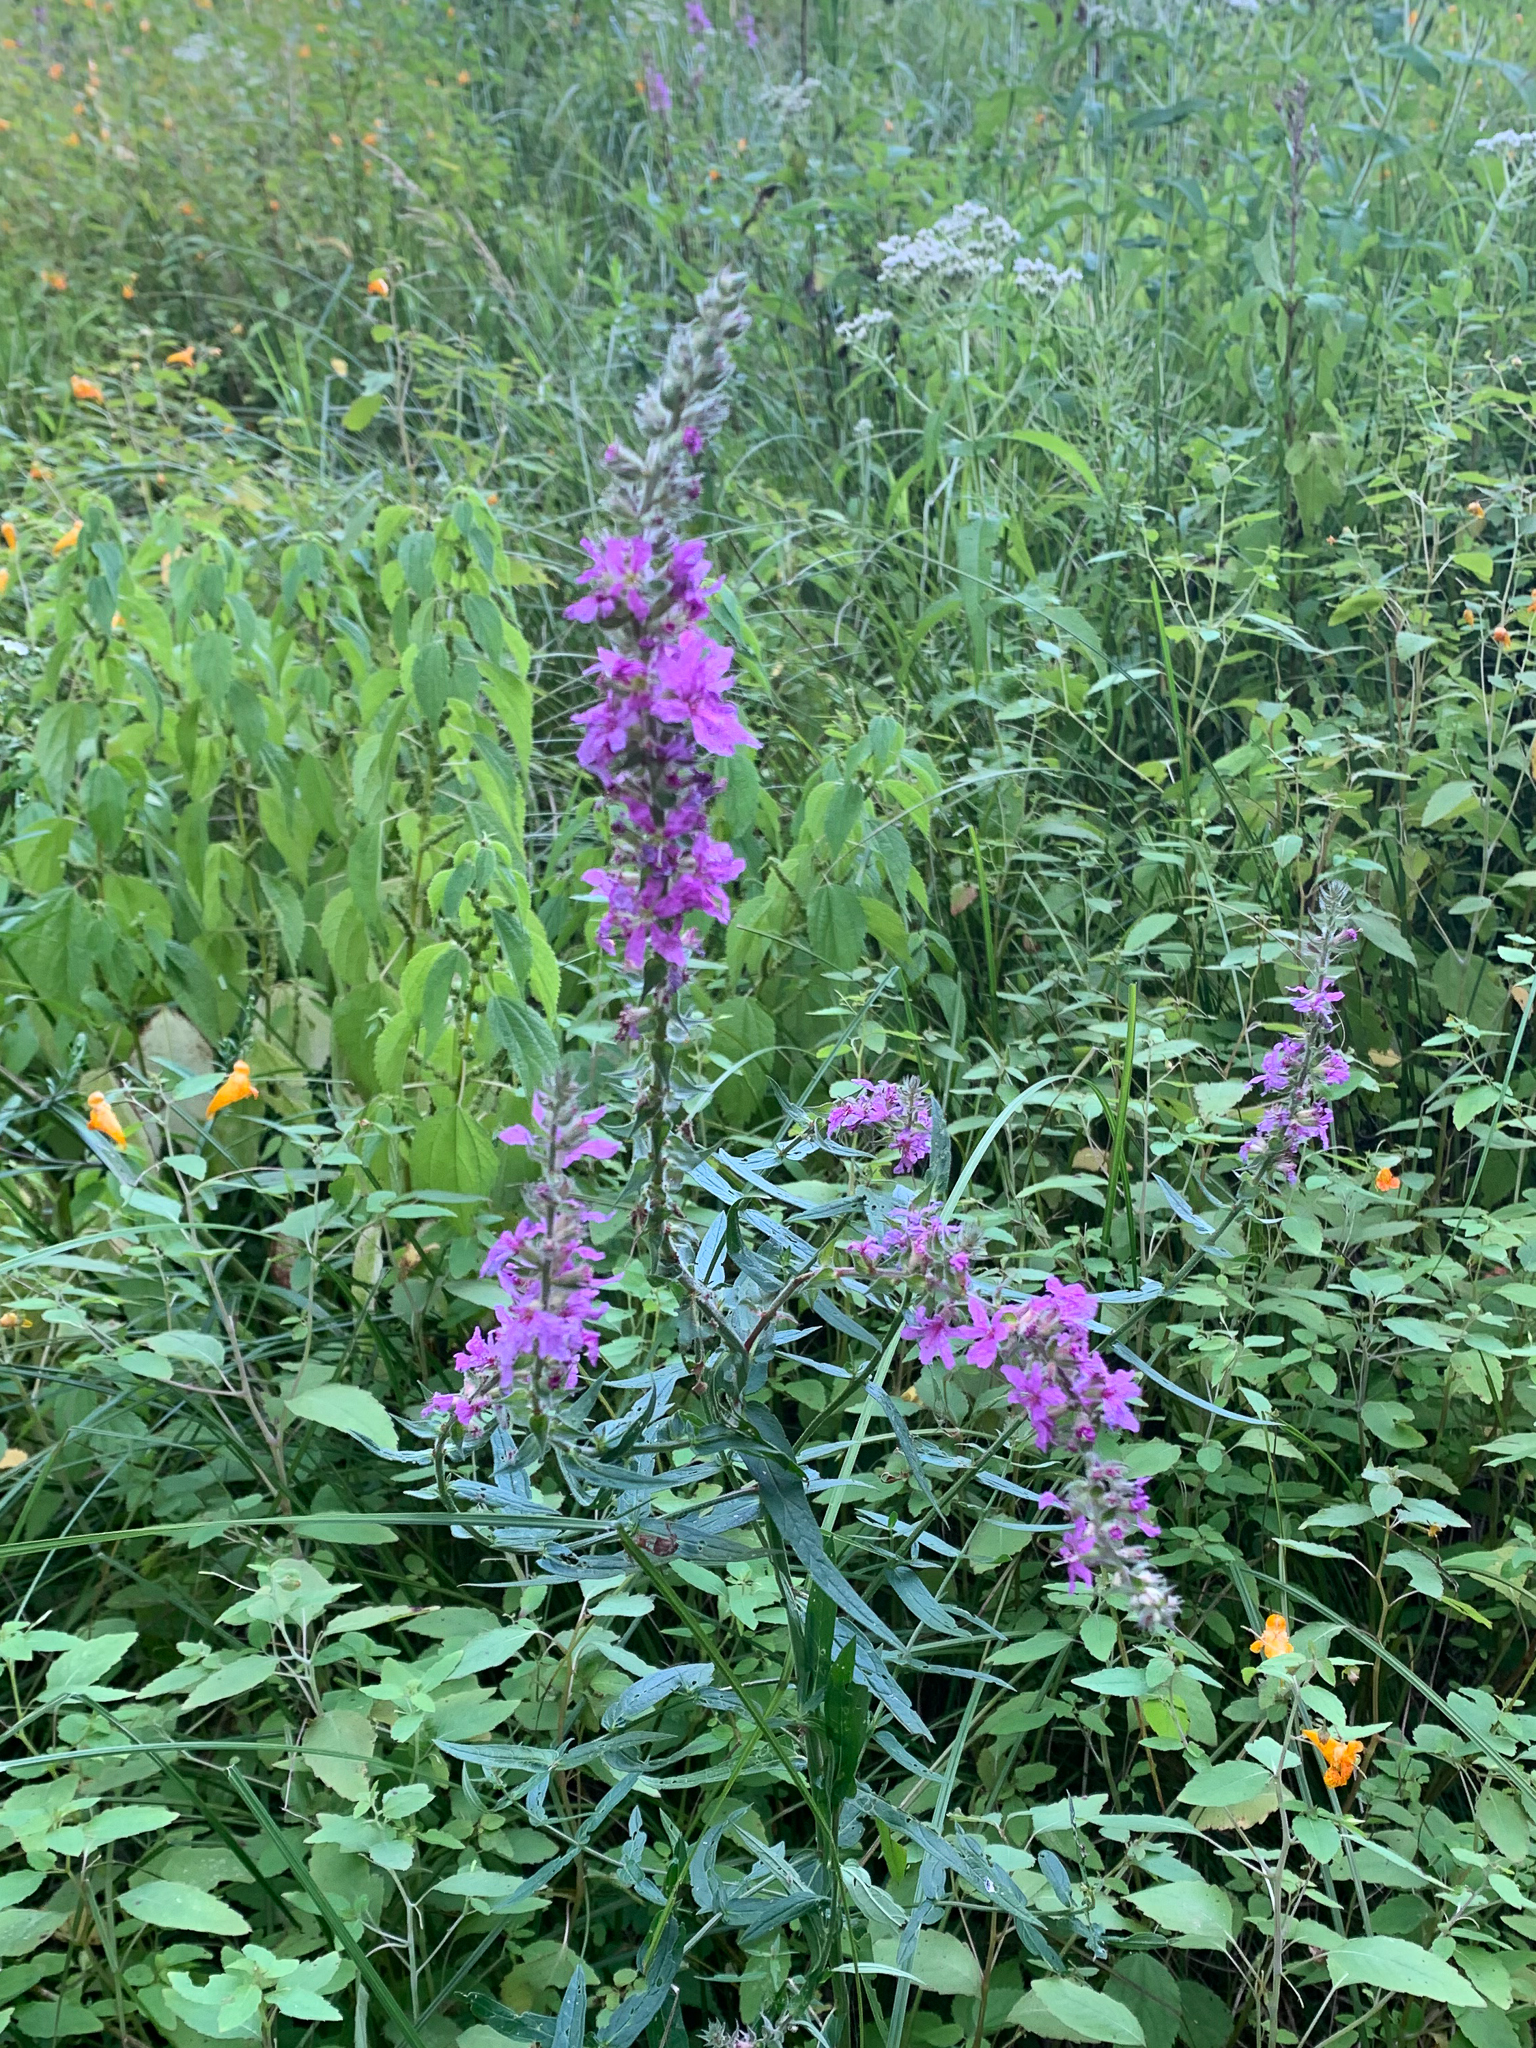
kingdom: Plantae
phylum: Tracheophyta
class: Magnoliopsida
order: Myrtales
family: Lythraceae
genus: Lythrum
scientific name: Lythrum salicaria
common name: Purple loosestrife
